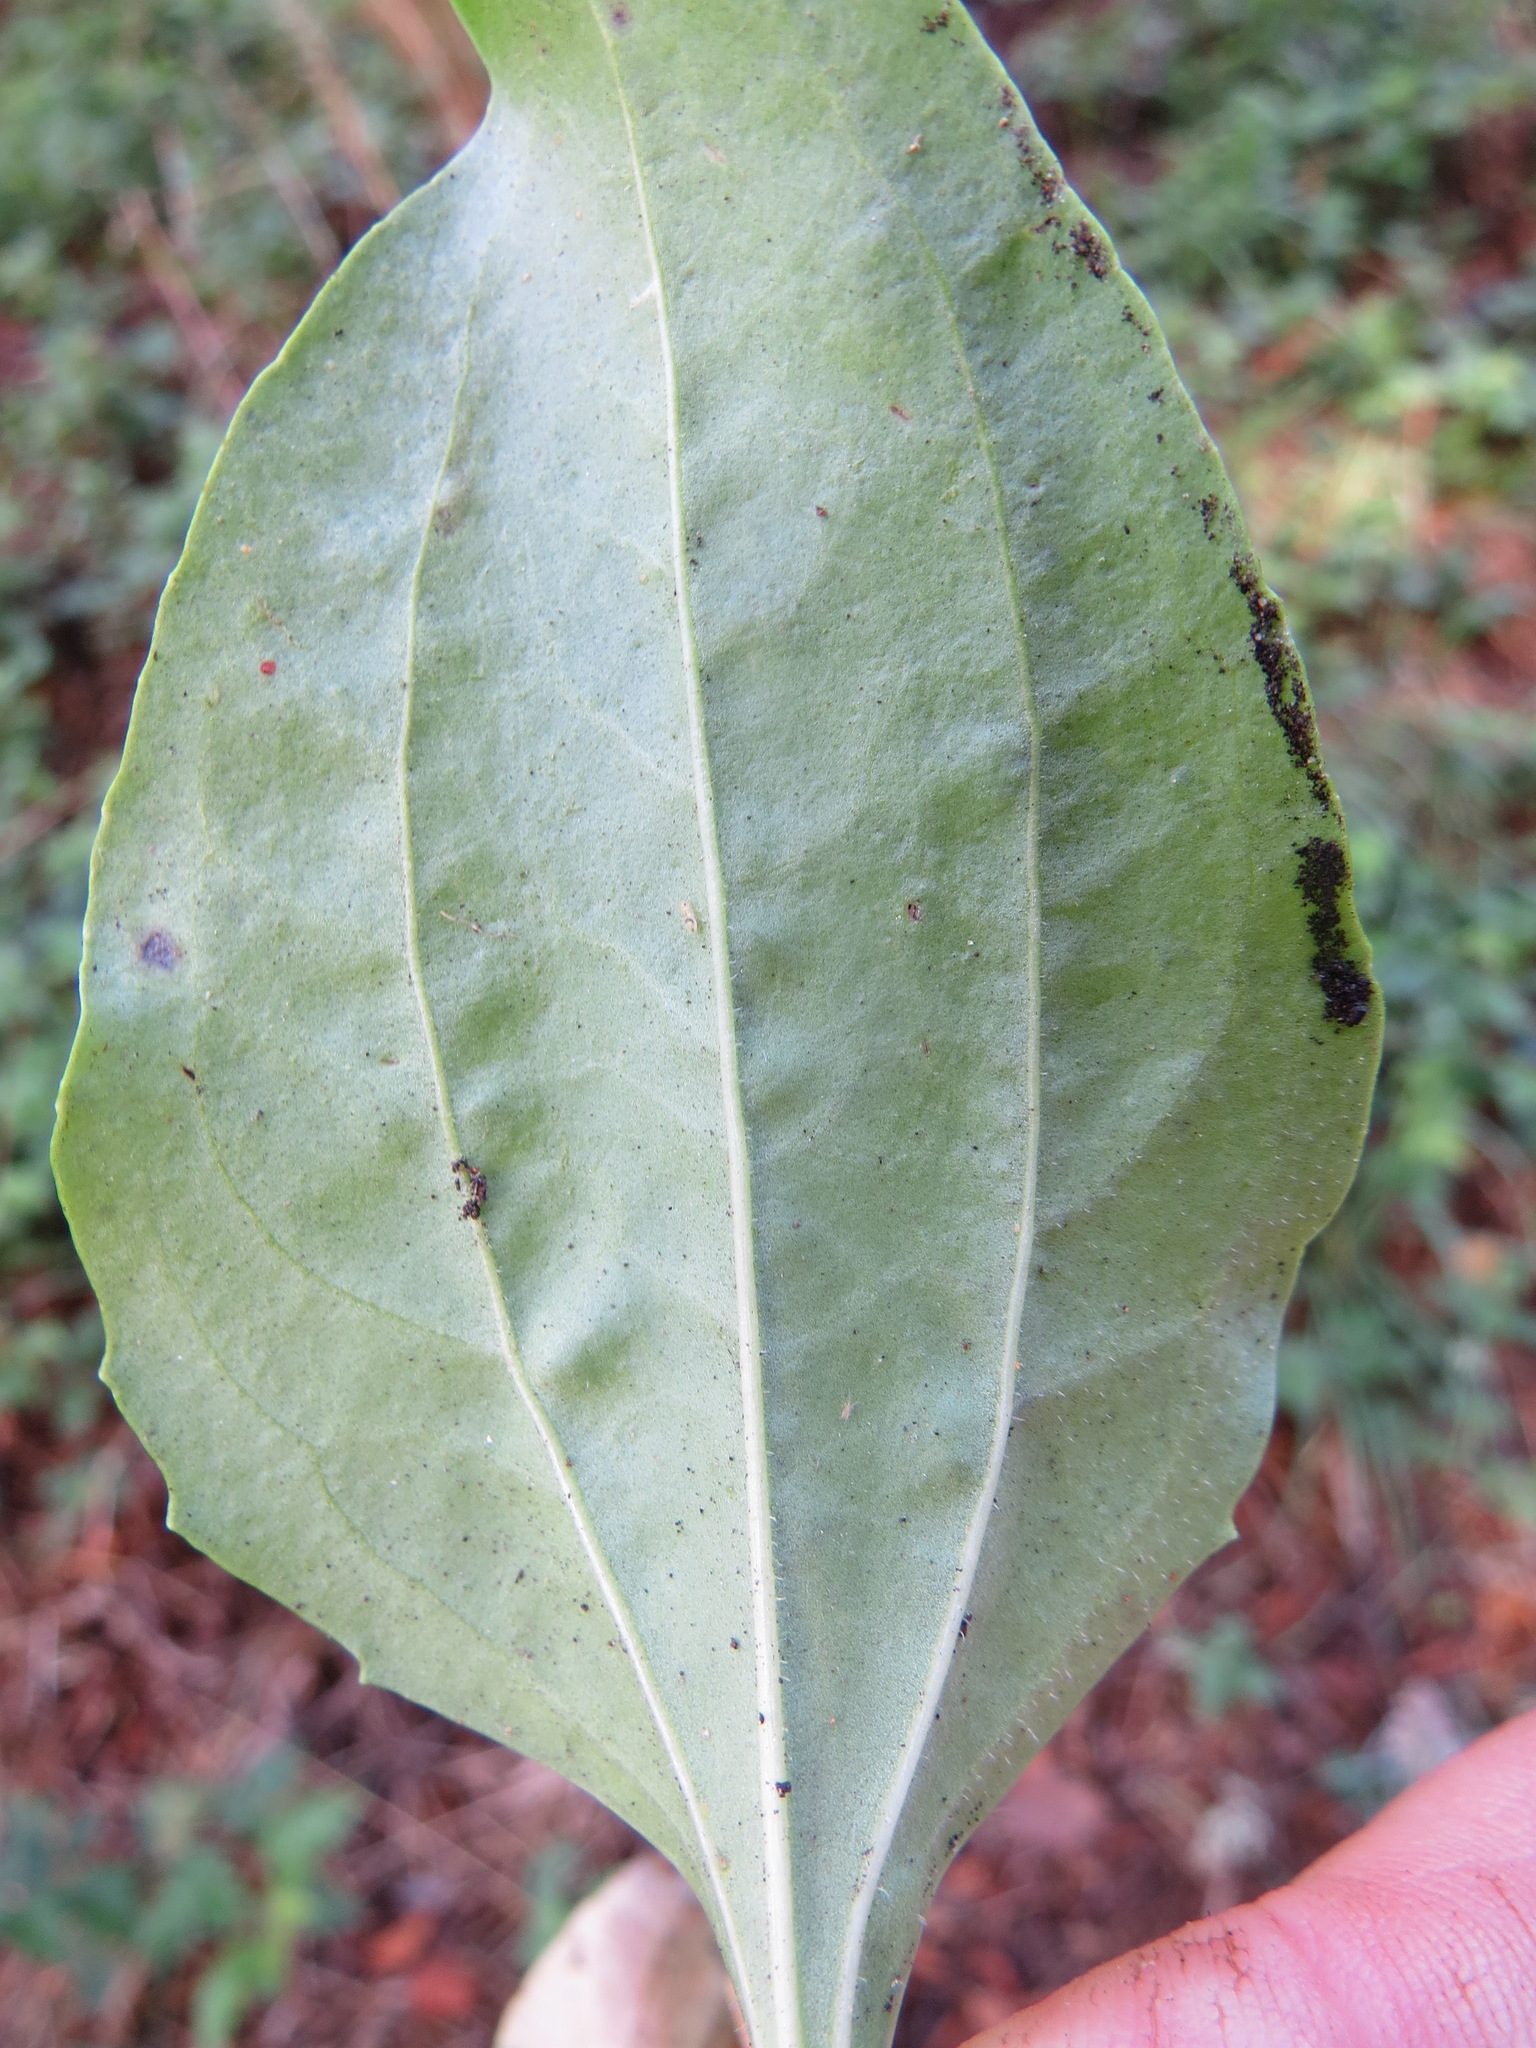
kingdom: Animalia
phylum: Arthropoda
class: Insecta
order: Diptera
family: Agromyzidae
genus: Phytomyza
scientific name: Phytomyza plantaginis
